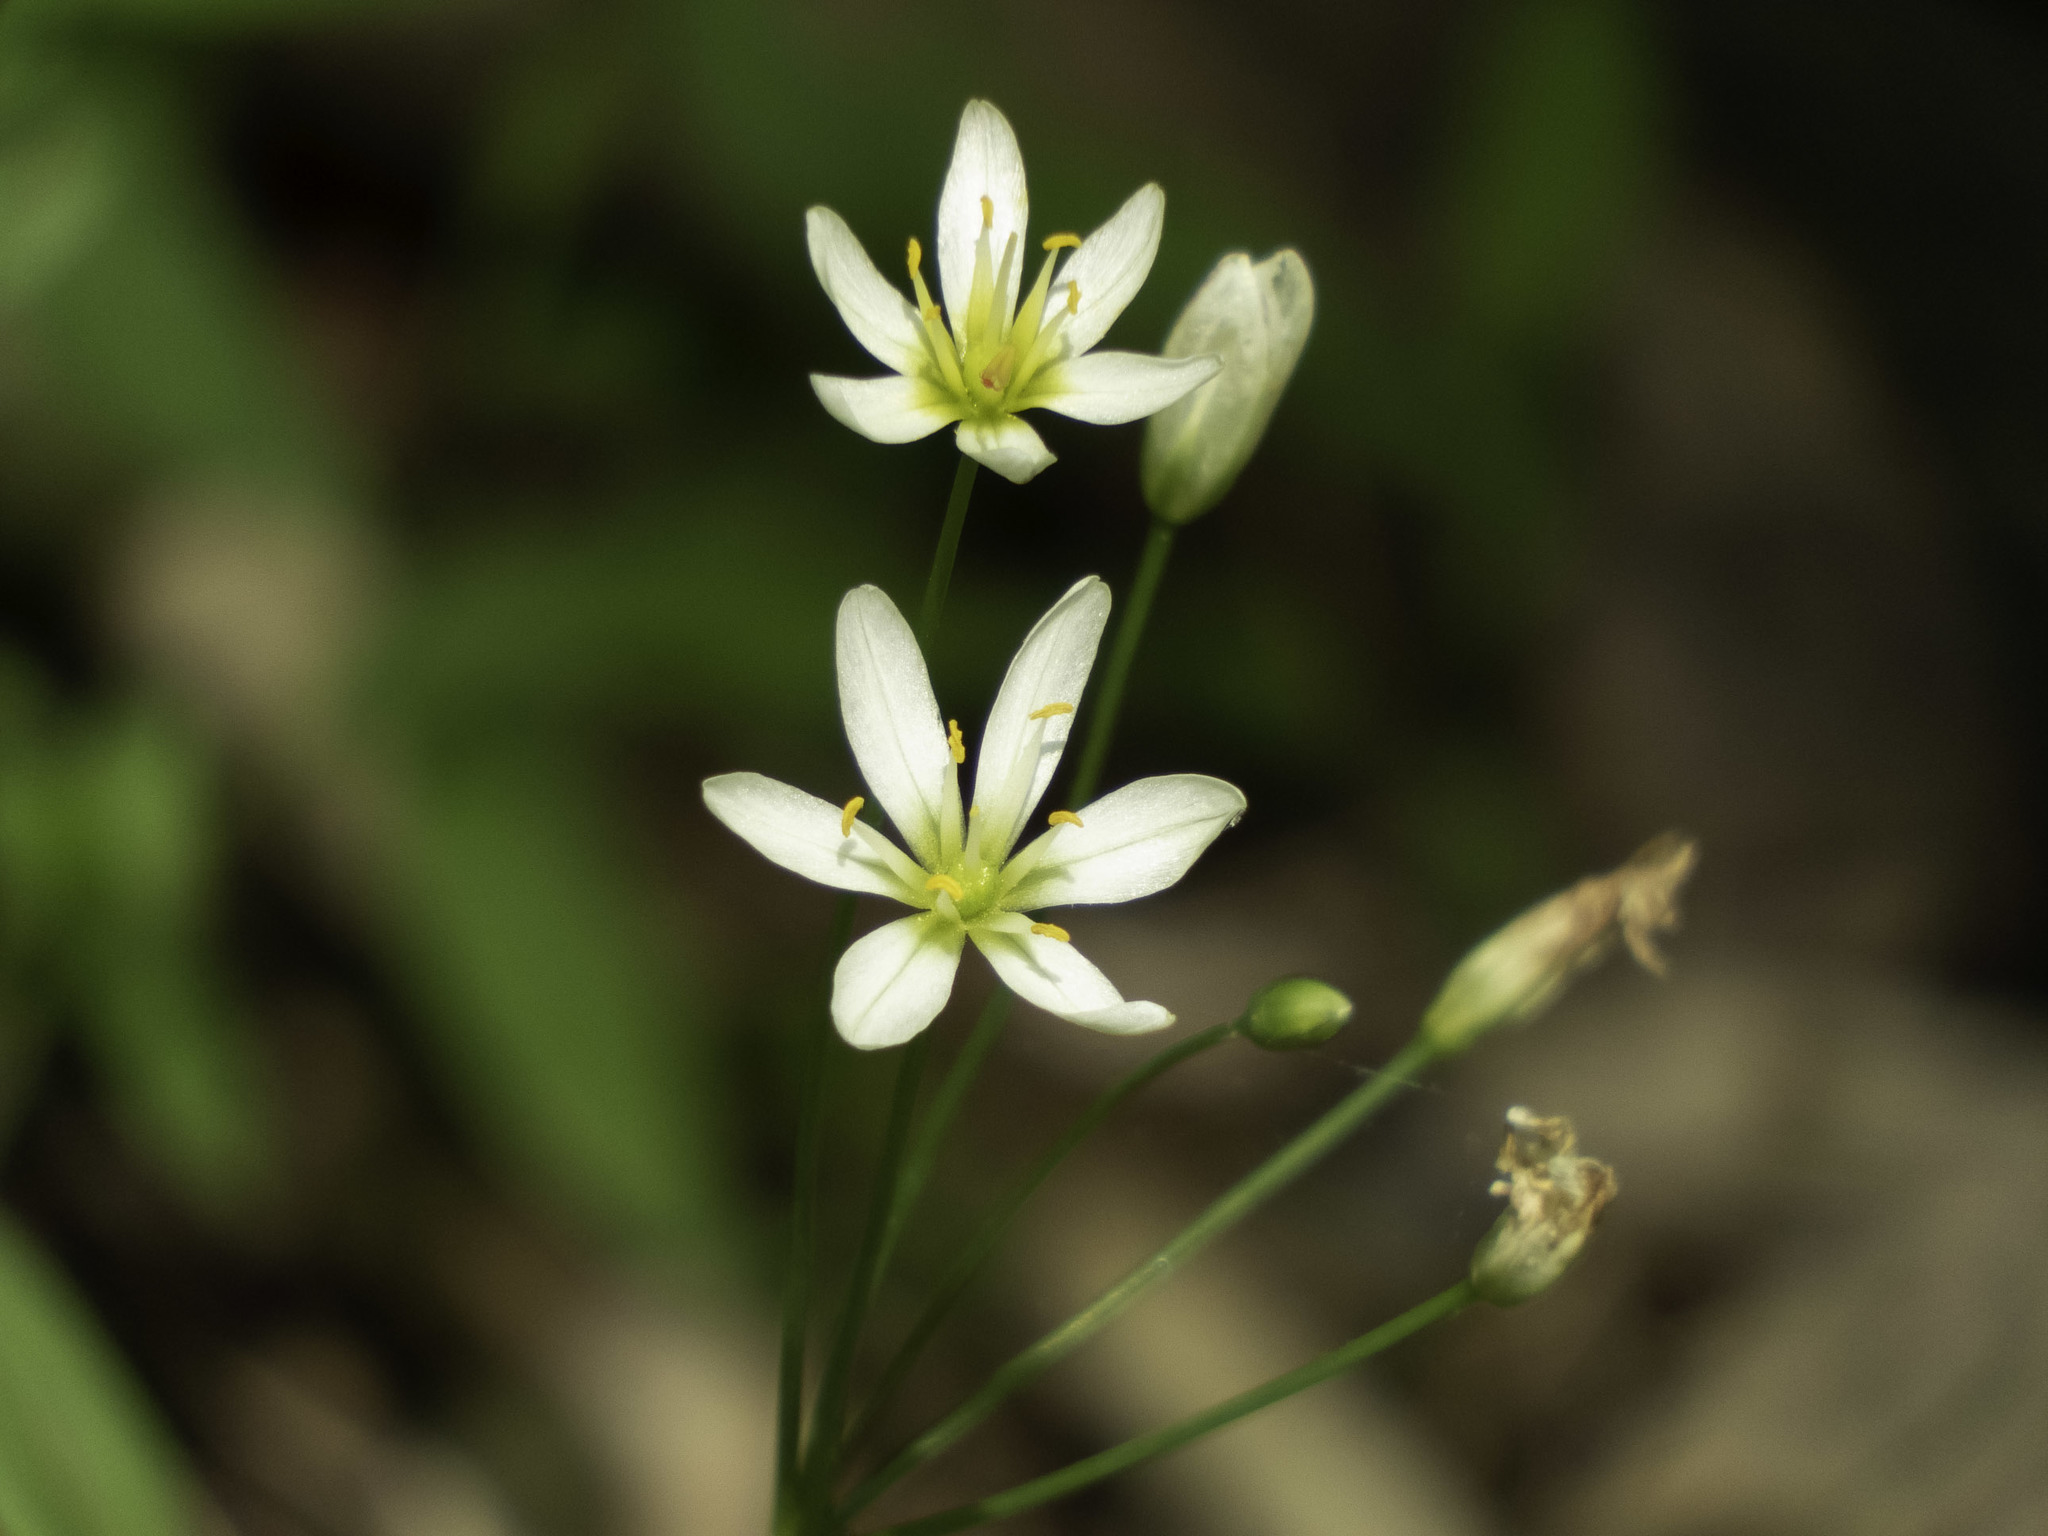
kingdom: Plantae
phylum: Tracheophyta
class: Liliopsida
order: Asparagales
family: Amaryllidaceae
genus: Nothoscordum
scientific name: Nothoscordum bivalve
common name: Crow-poison
